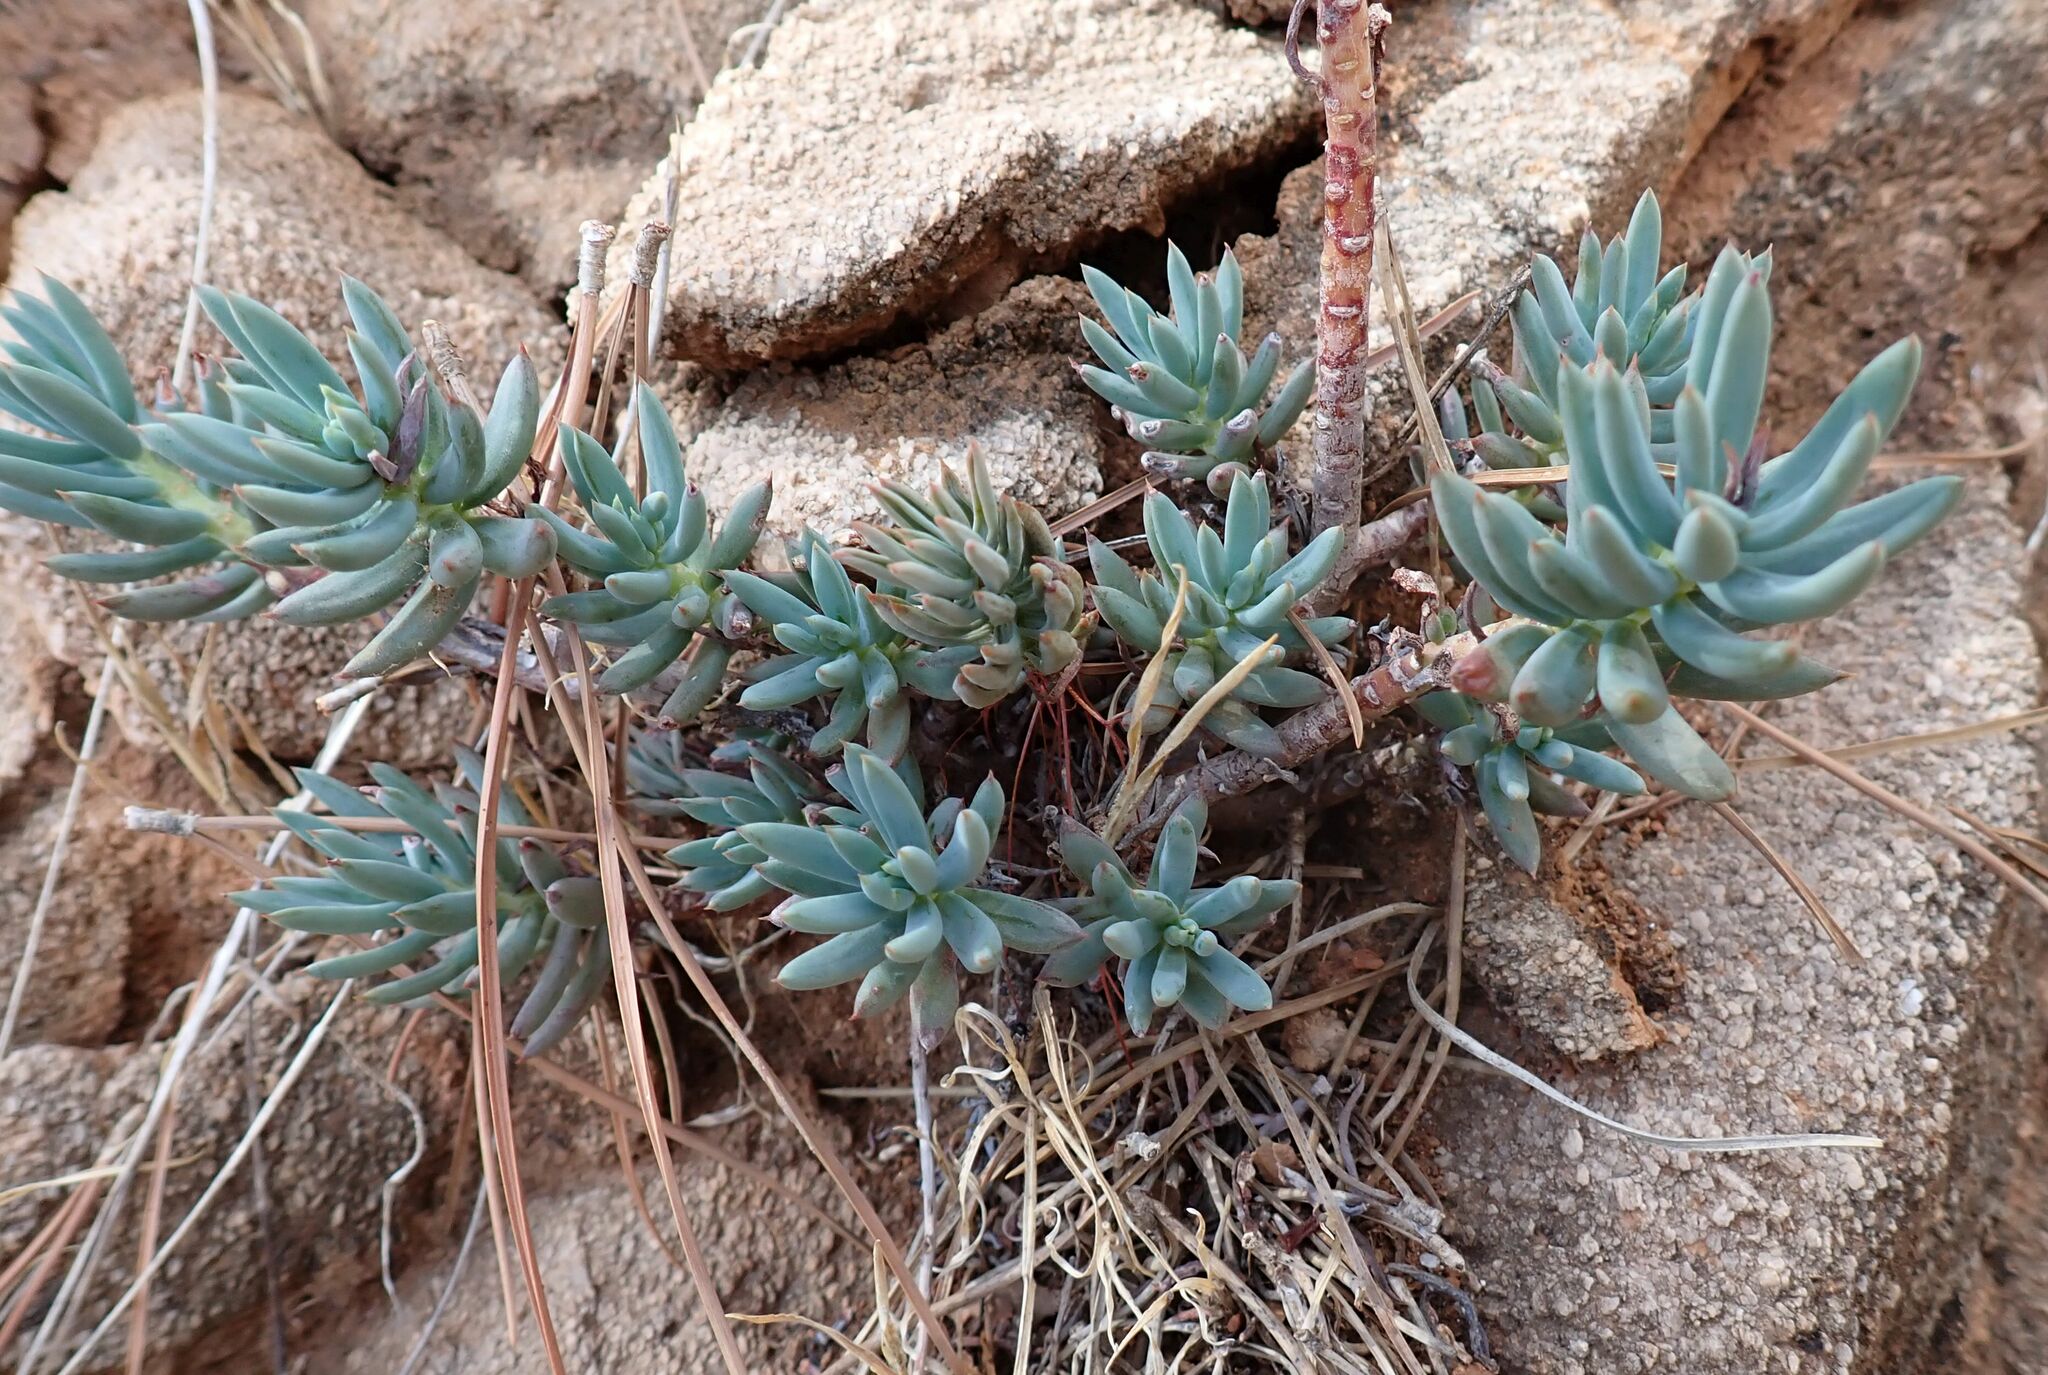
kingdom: Plantae
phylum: Tracheophyta
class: Magnoliopsida
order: Saxifragales
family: Crassulaceae
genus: Petrosedum
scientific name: Petrosedum sediforme
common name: Pale stonecrop
